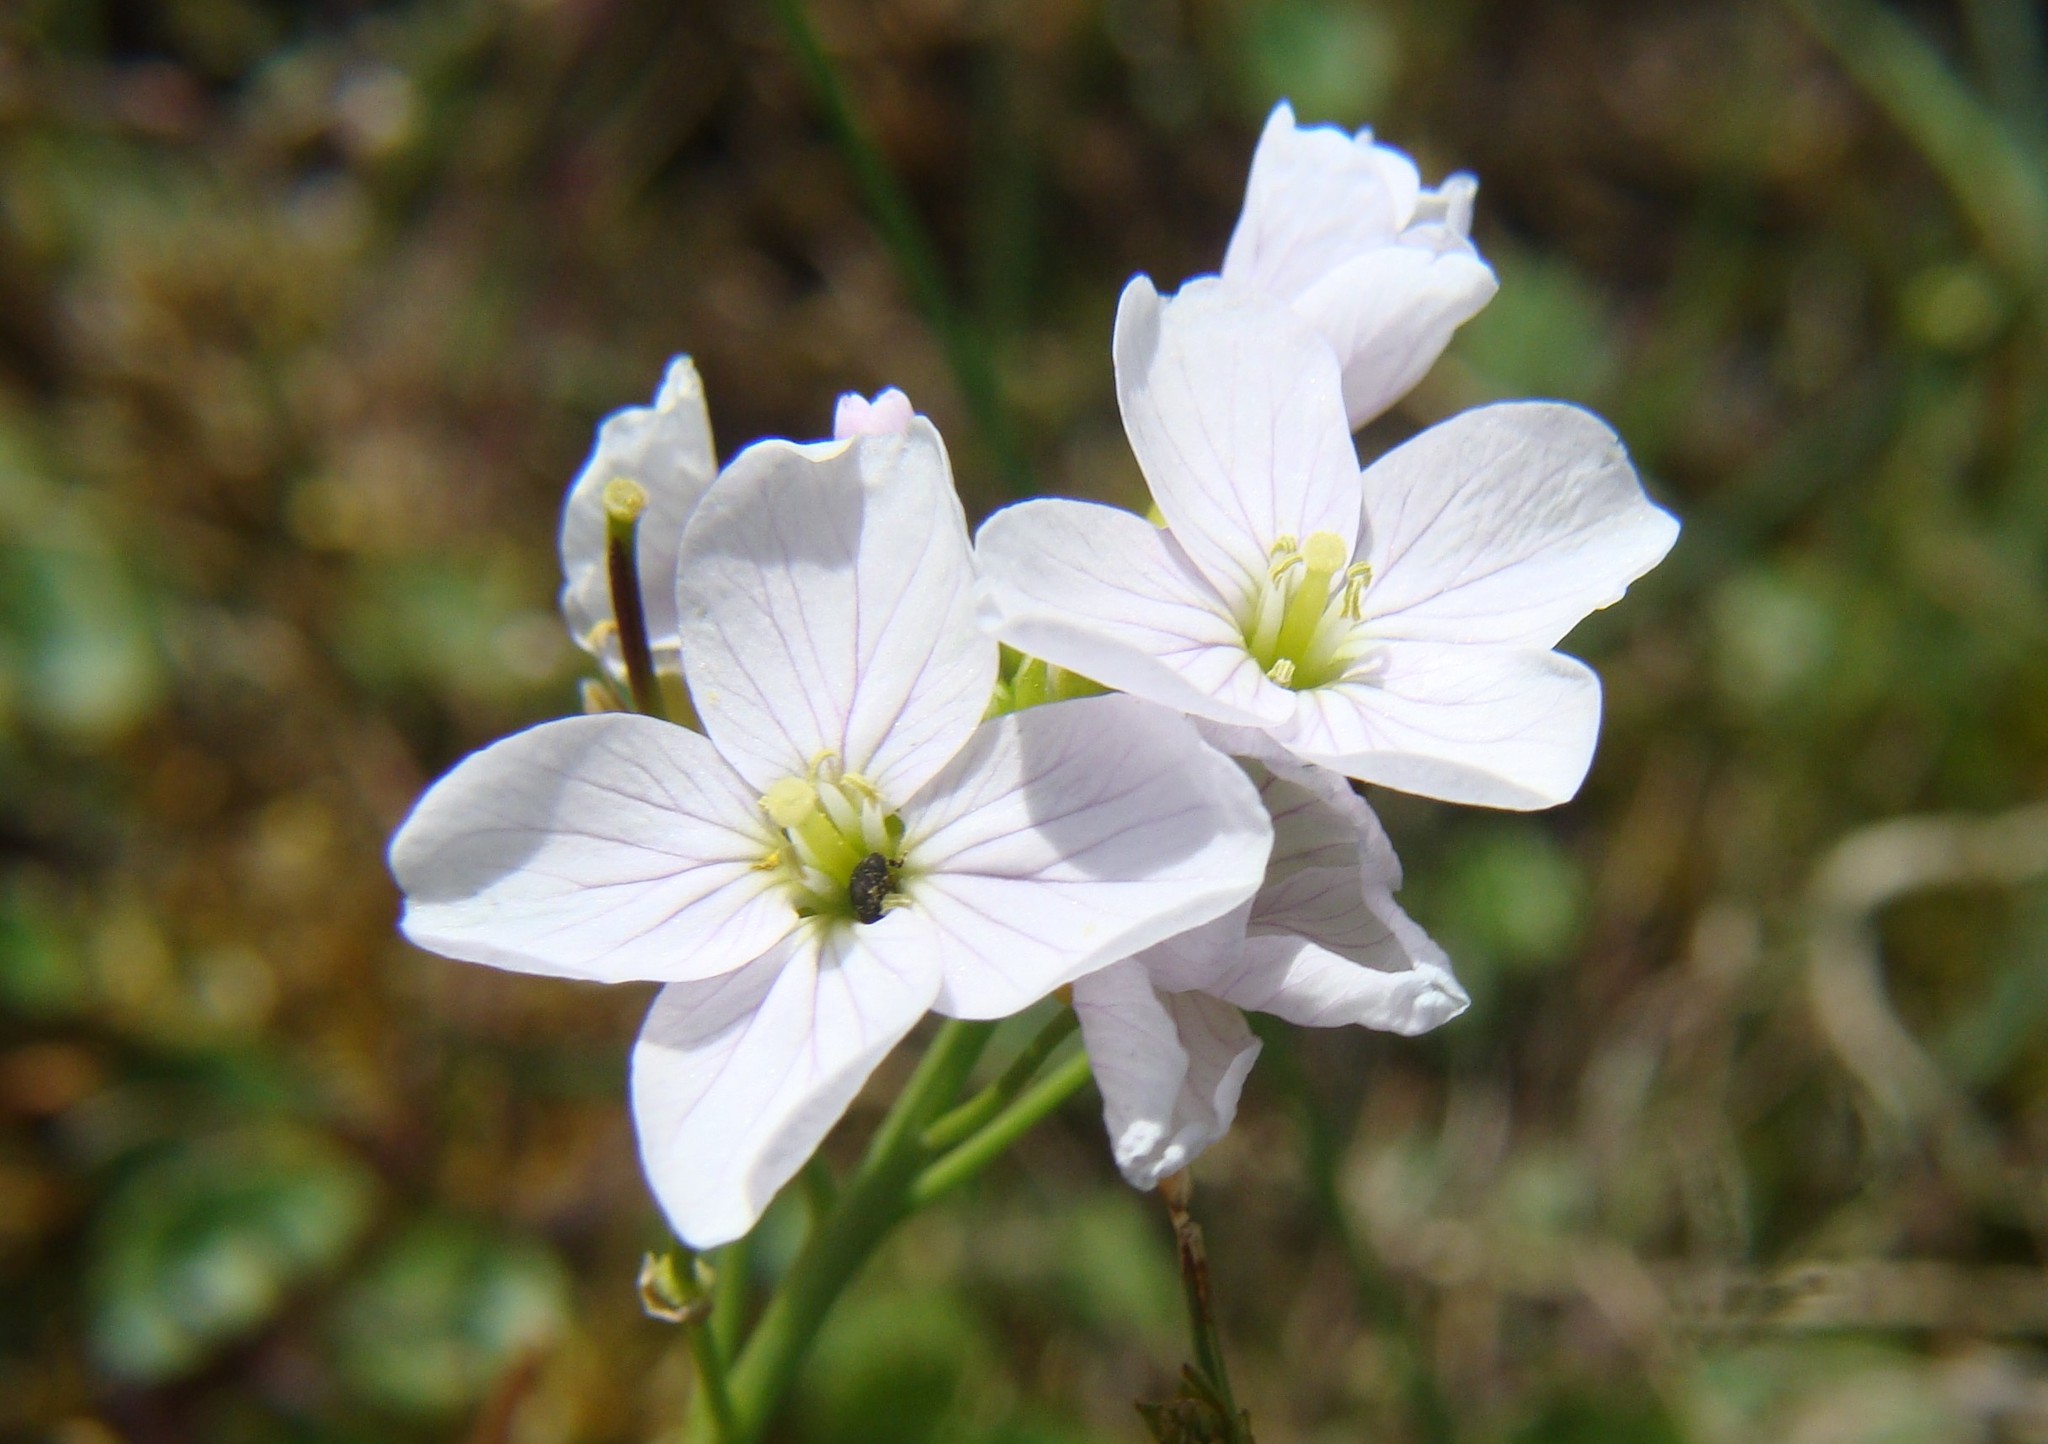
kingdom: Plantae
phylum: Tracheophyta
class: Magnoliopsida
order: Brassicales
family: Brassicaceae
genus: Cardamine
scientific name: Cardamine pratensis
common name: Cuckoo flower
